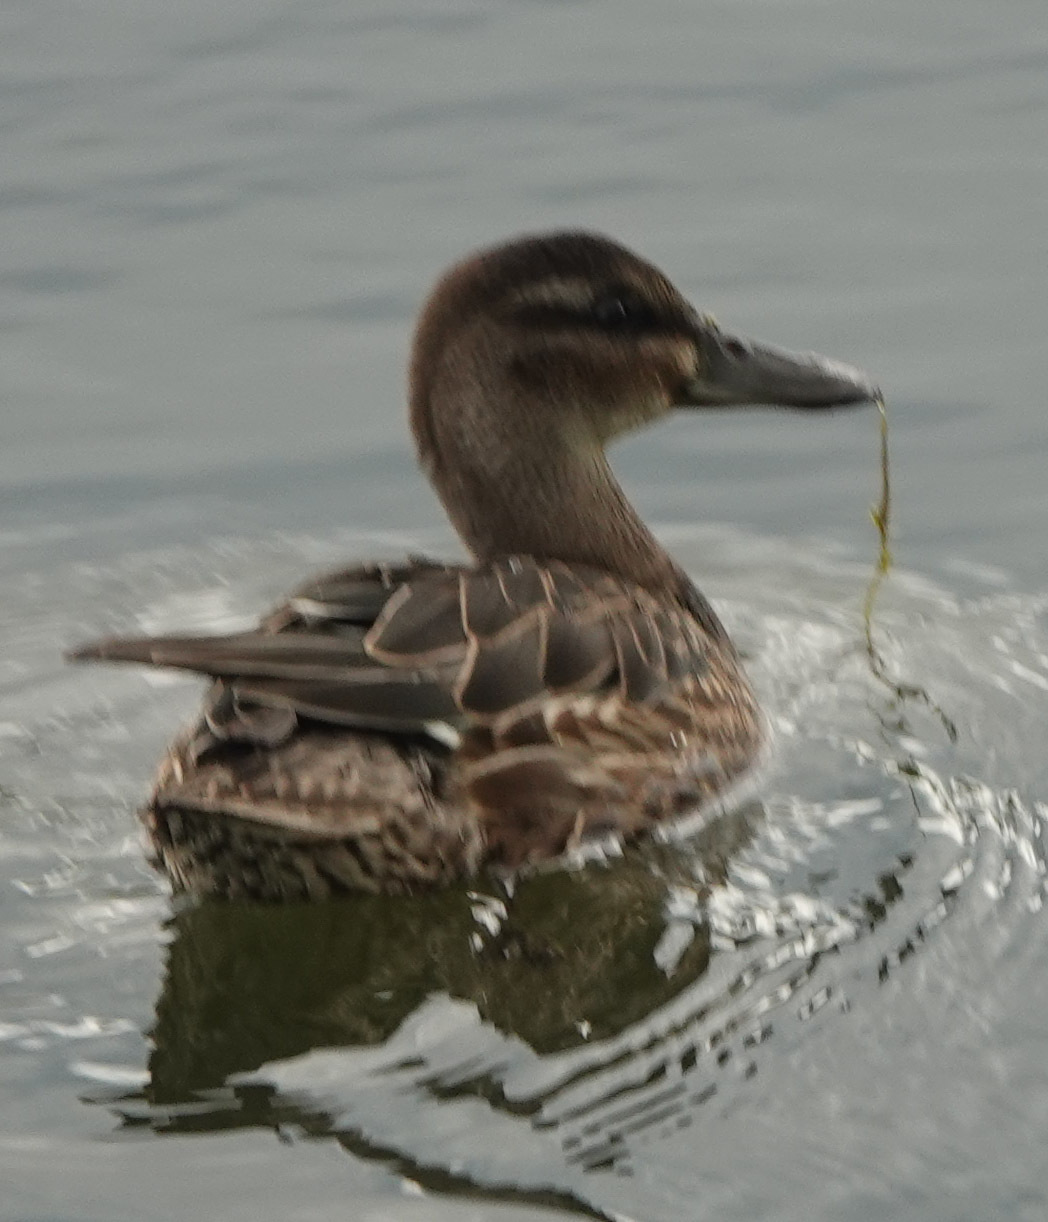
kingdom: Animalia
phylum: Chordata
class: Aves
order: Anseriformes
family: Anatidae
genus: Spatula
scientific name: Spatula querquedula
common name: Garganey
